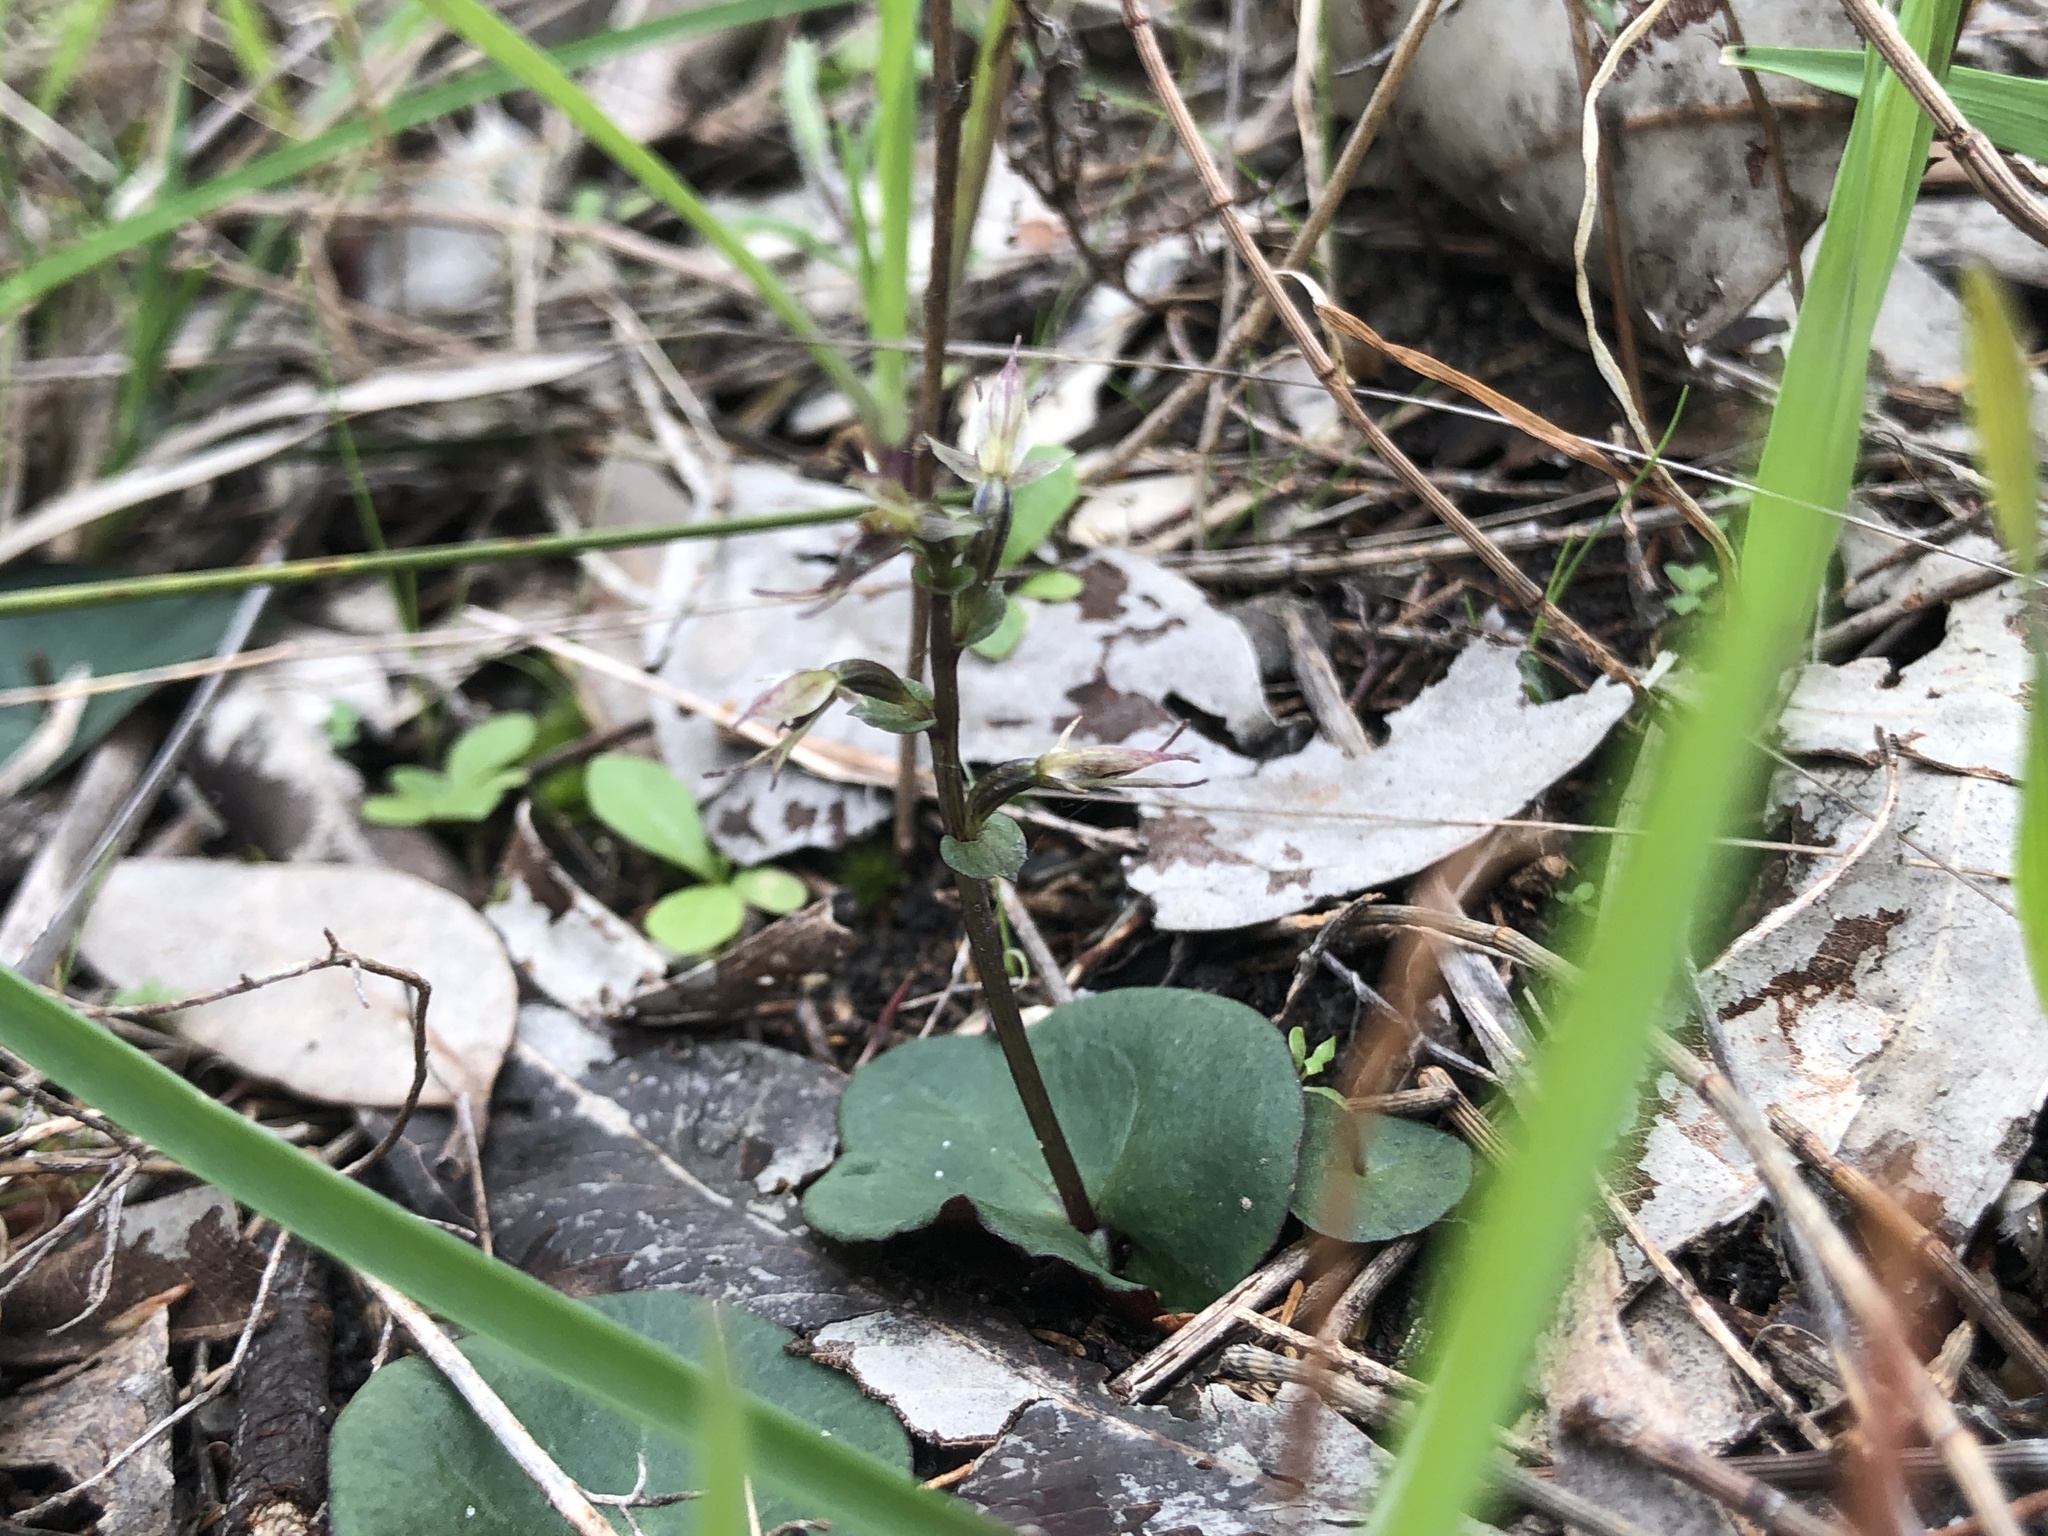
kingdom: Plantae
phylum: Tracheophyta
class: Liliopsida
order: Asparagales
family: Orchidaceae
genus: Acianthus
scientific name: Acianthus pusillus
